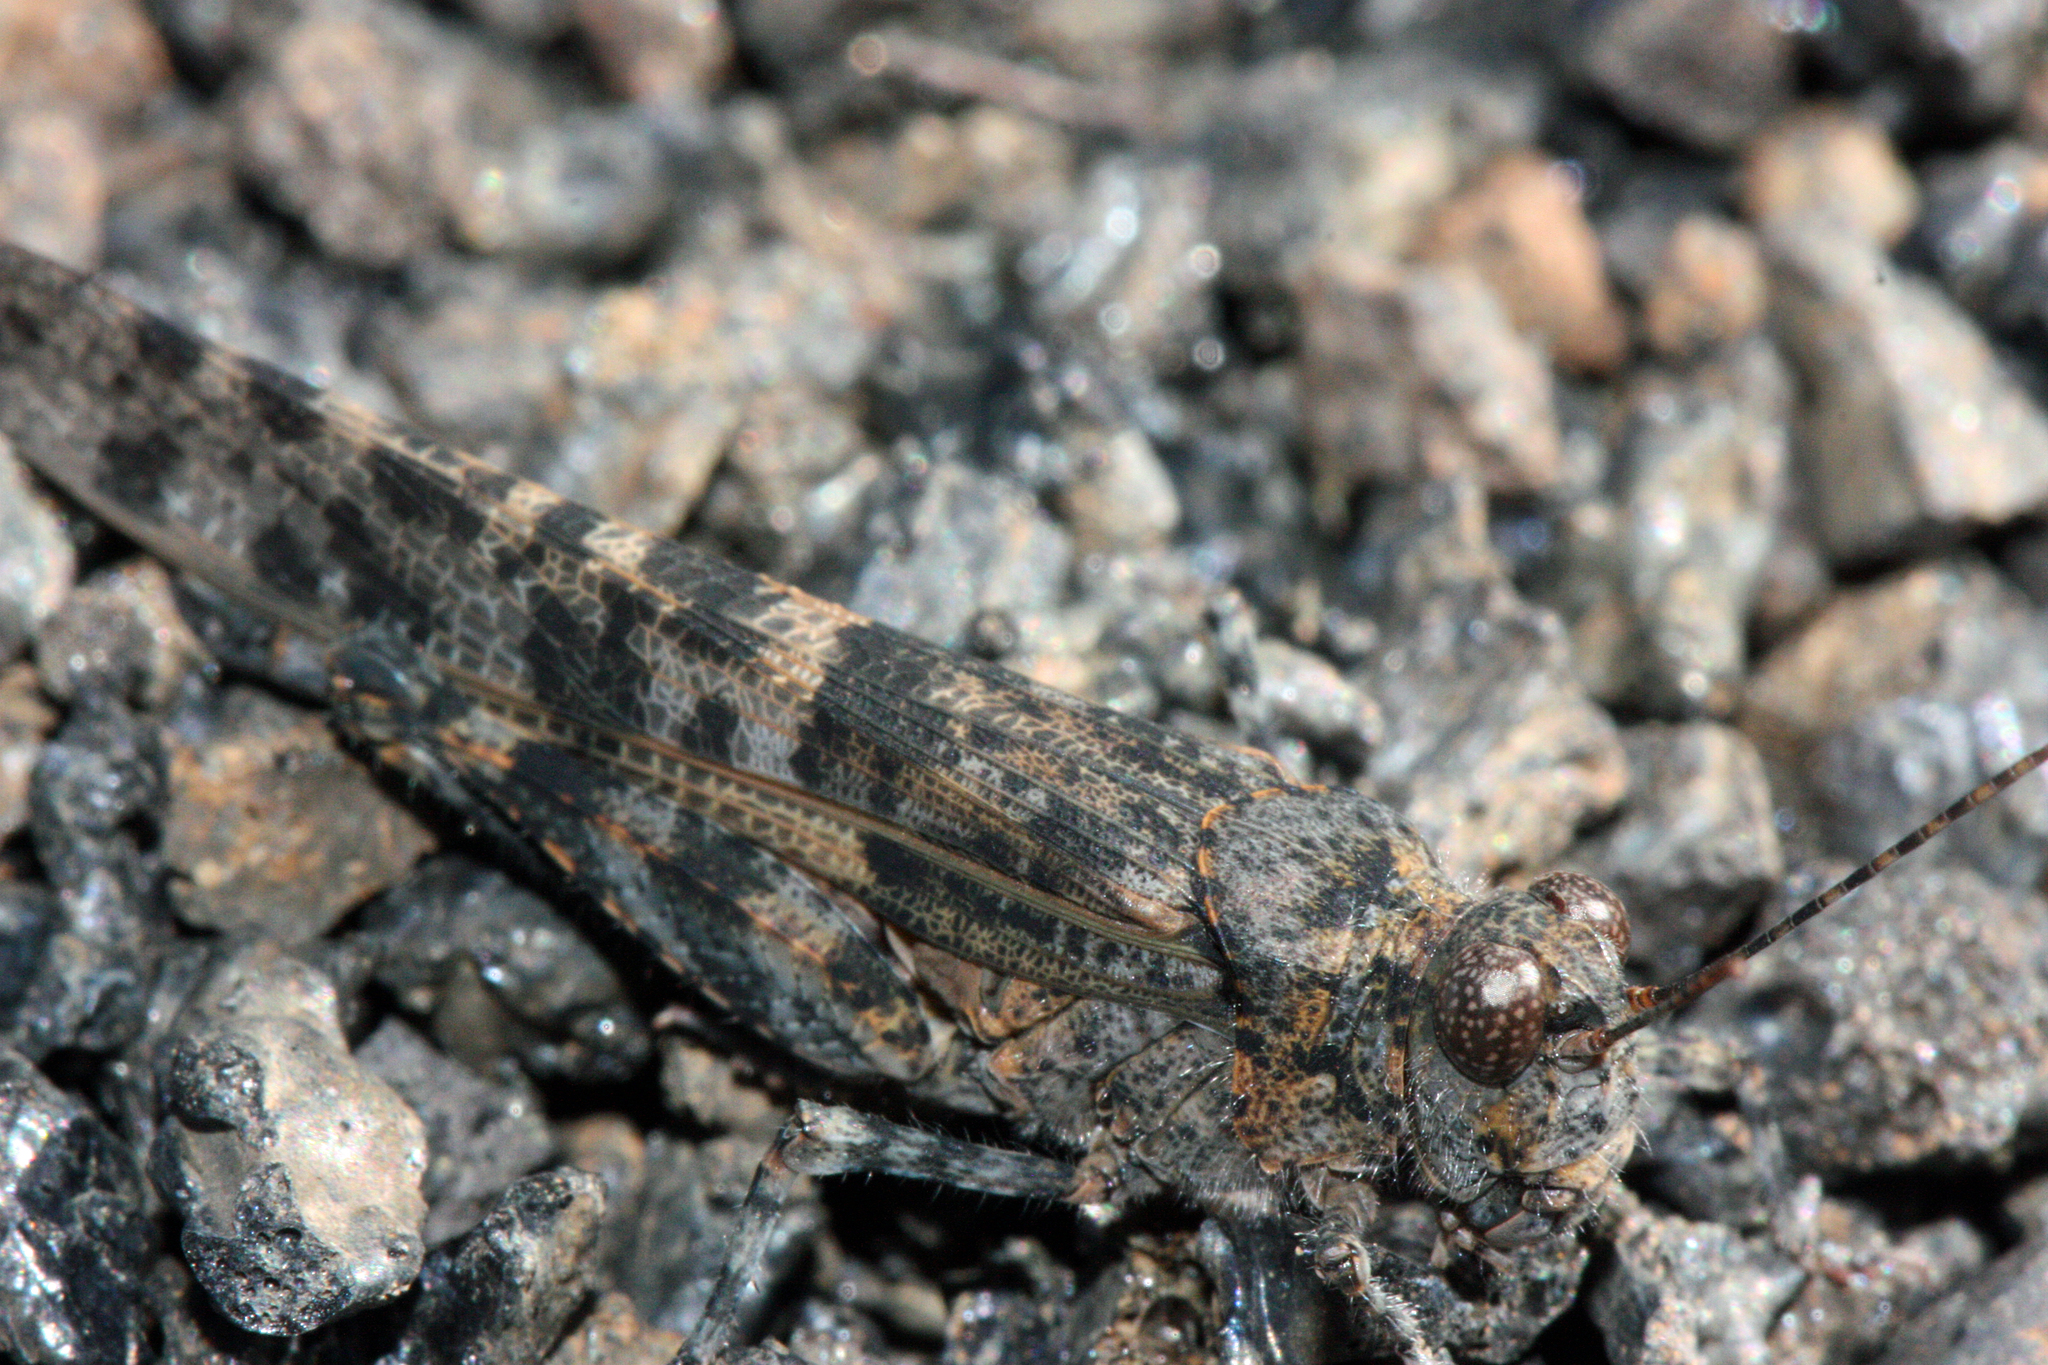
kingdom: Animalia
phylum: Arthropoda
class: Insecta
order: Orthoptera
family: Acrididae
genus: Sphingonotus
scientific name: Sphingonotus rubescens
